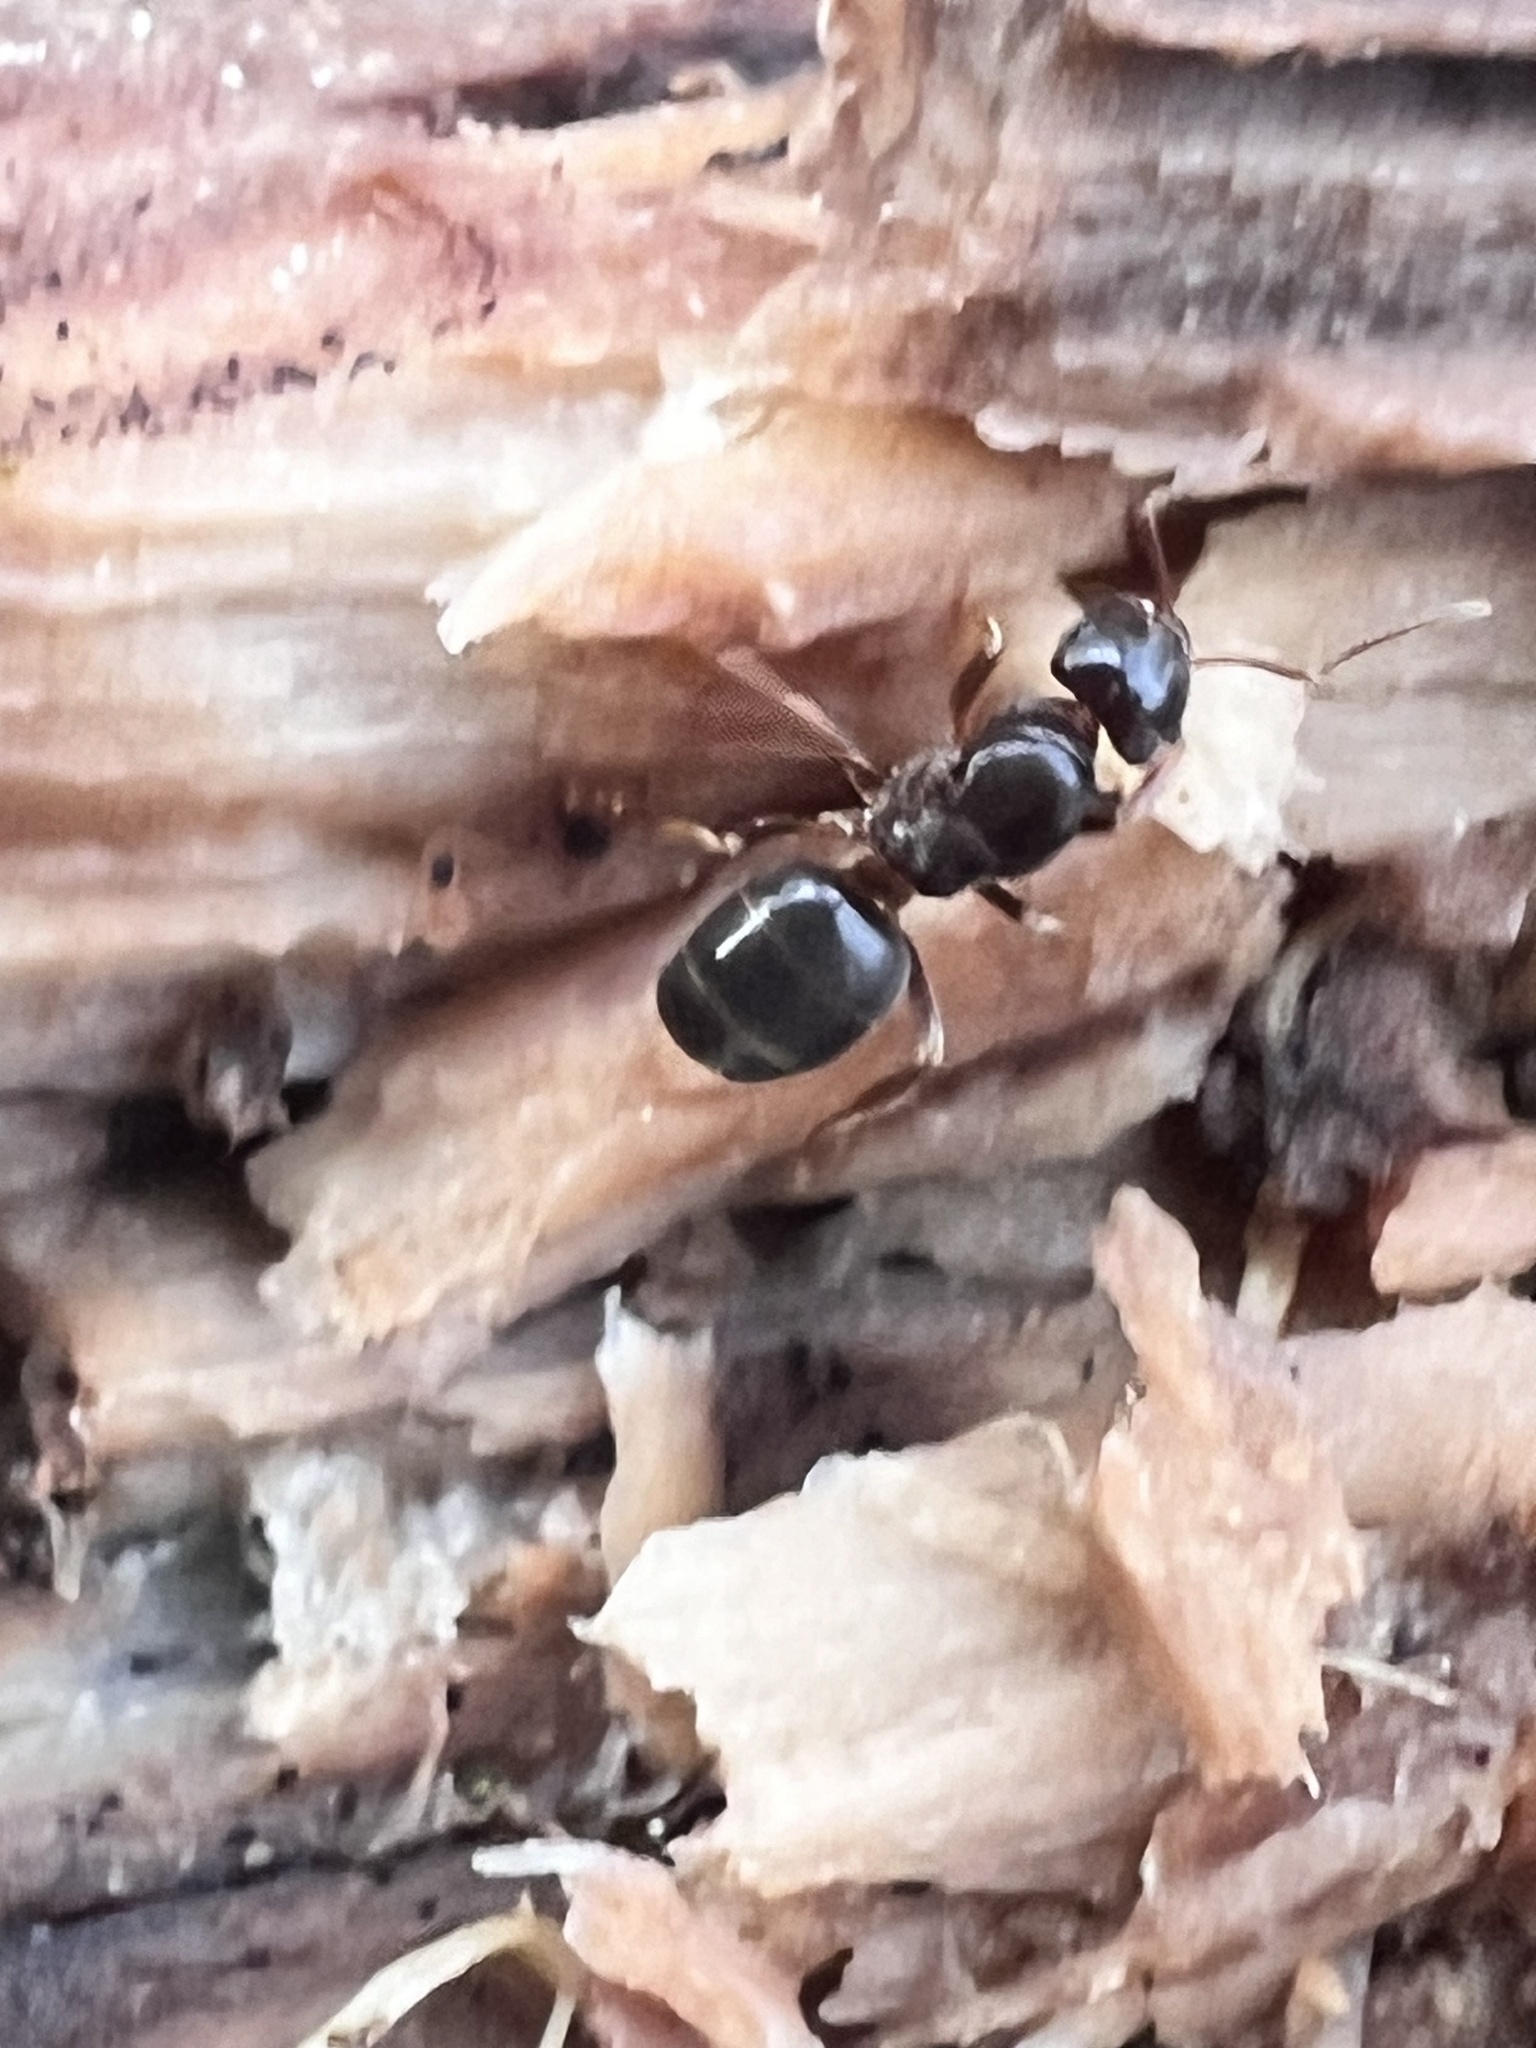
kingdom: Animalia
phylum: Arthropoda
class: Insecta
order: Hymenoptera
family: Formicidae
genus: Lasius
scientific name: Lasius aphidicola
